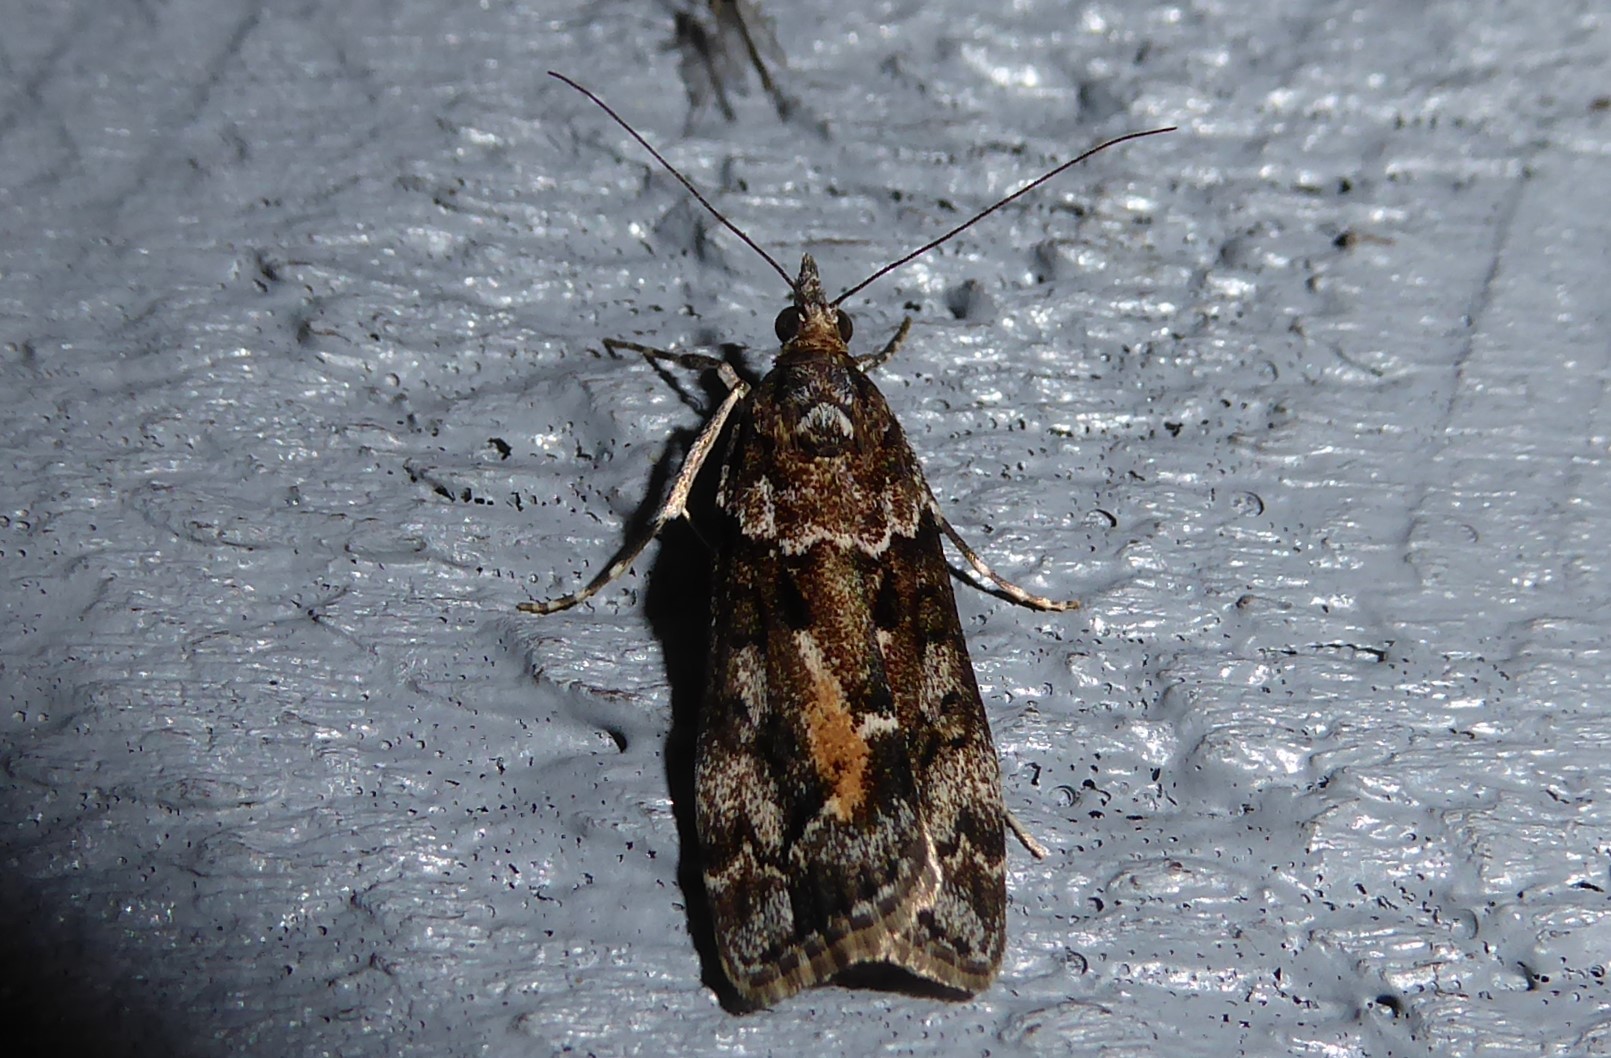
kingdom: Animalia
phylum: Arthropoda
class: Insecta
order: Lepidoptera
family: Crambidae
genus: Eudonia
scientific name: Eudonia submarginalis
